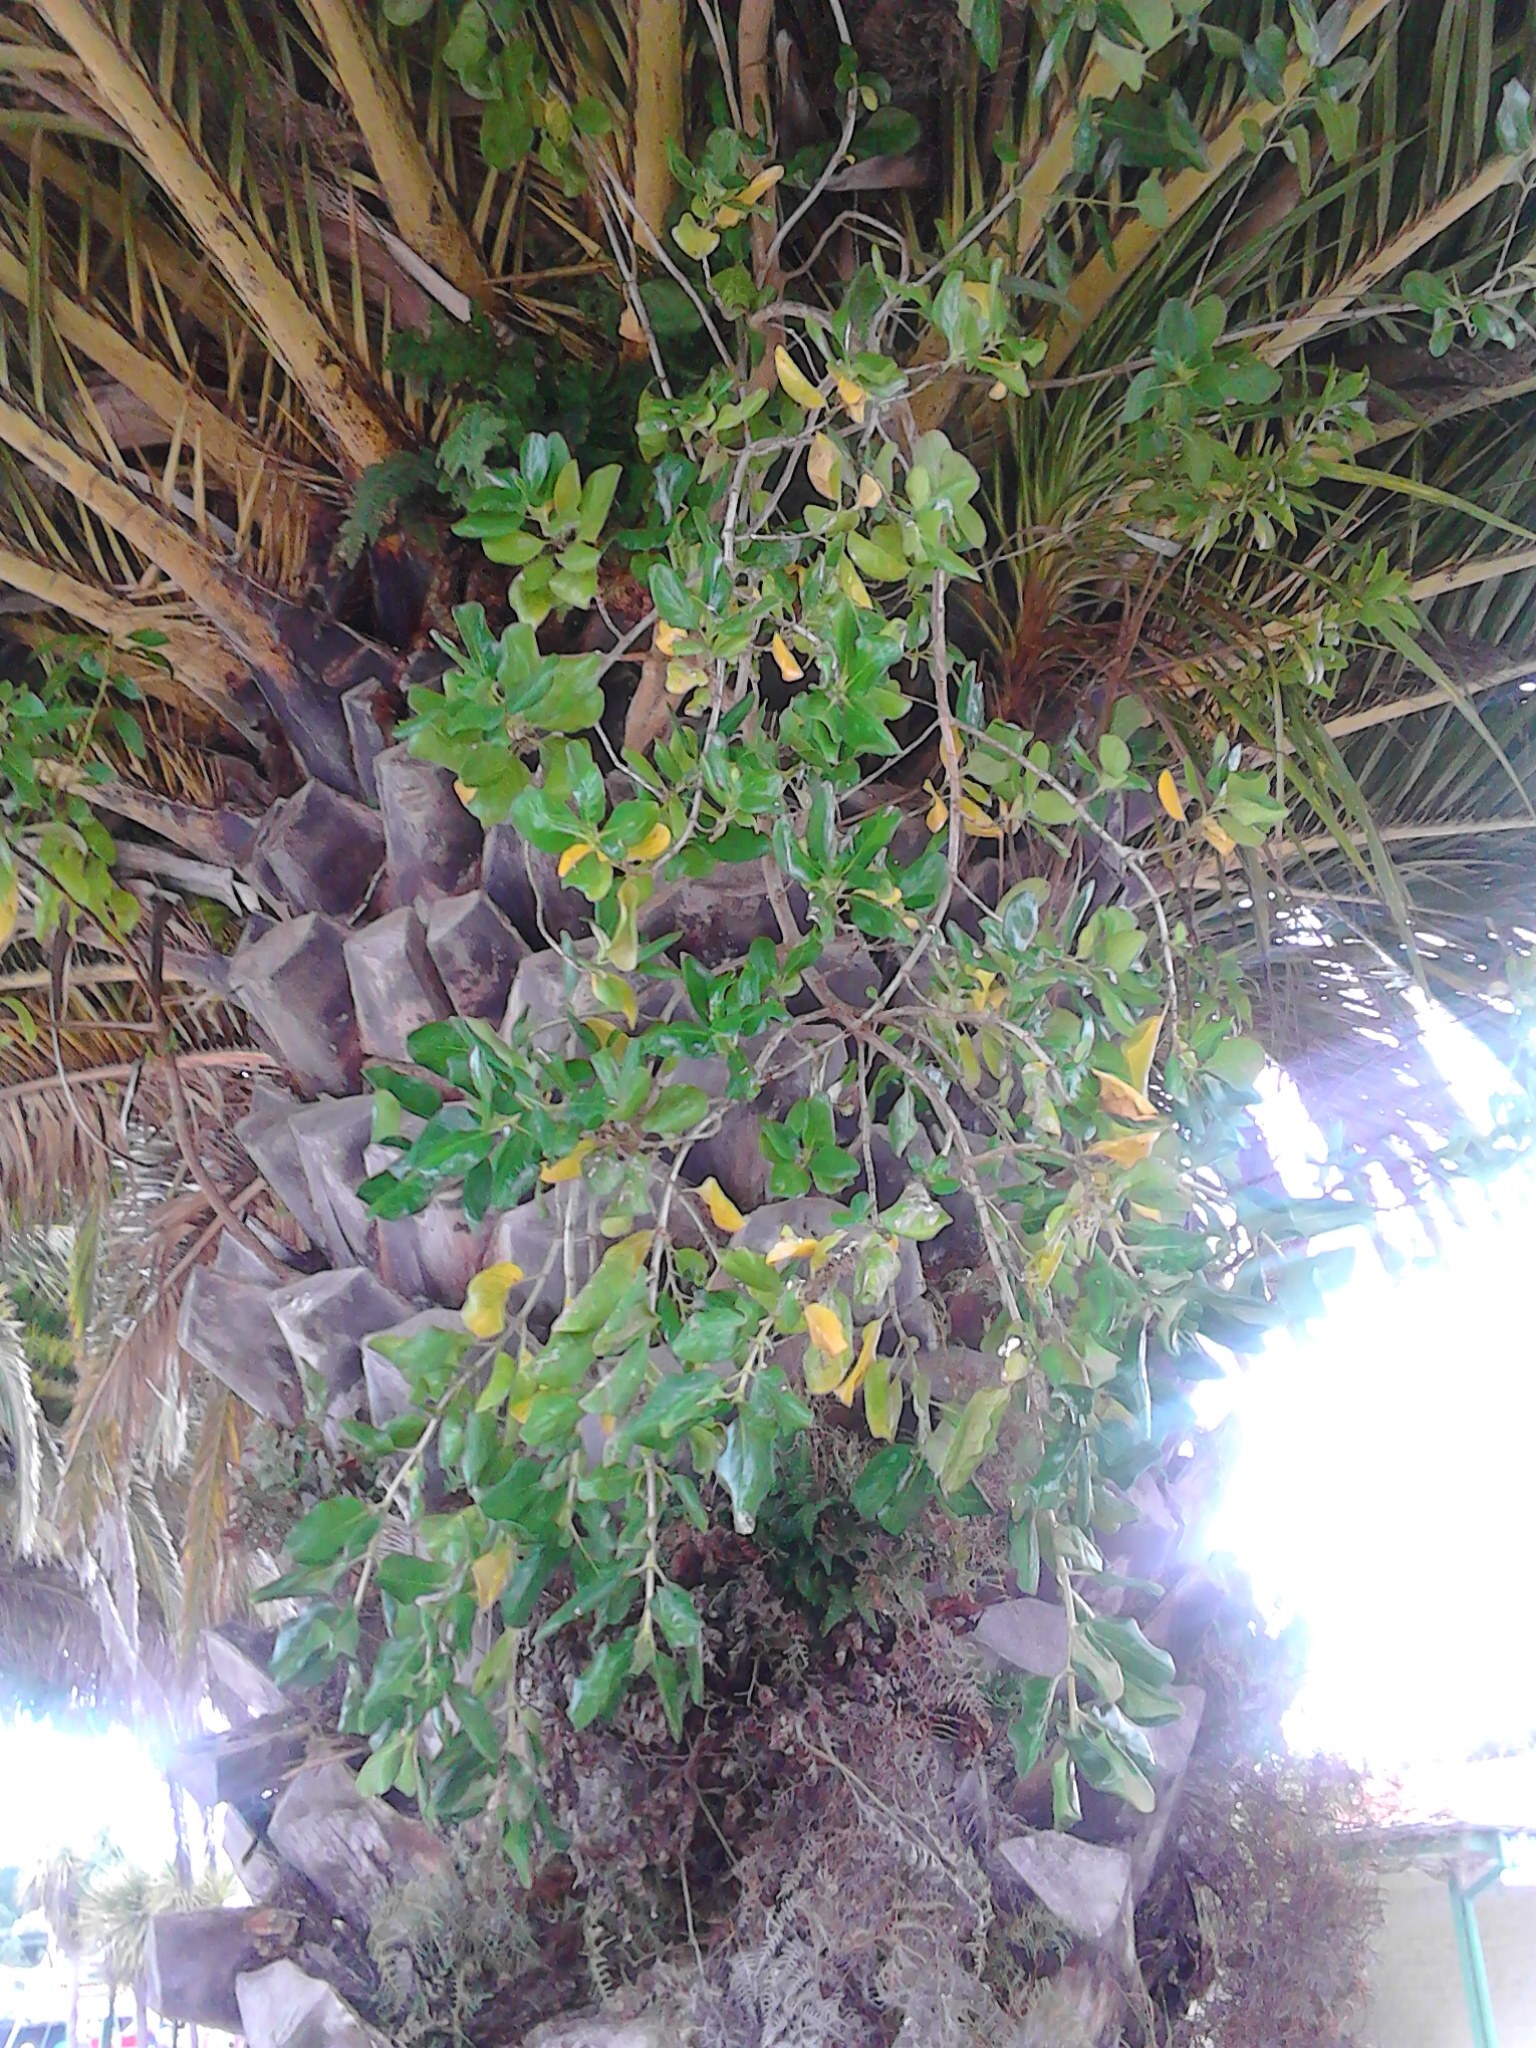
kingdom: Plantae
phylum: Tracheophyta
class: Magnoliopsida
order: Gentianales
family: Rubiaceae
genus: Coprosma
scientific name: Coprosma repens
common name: Tree bedstraw
